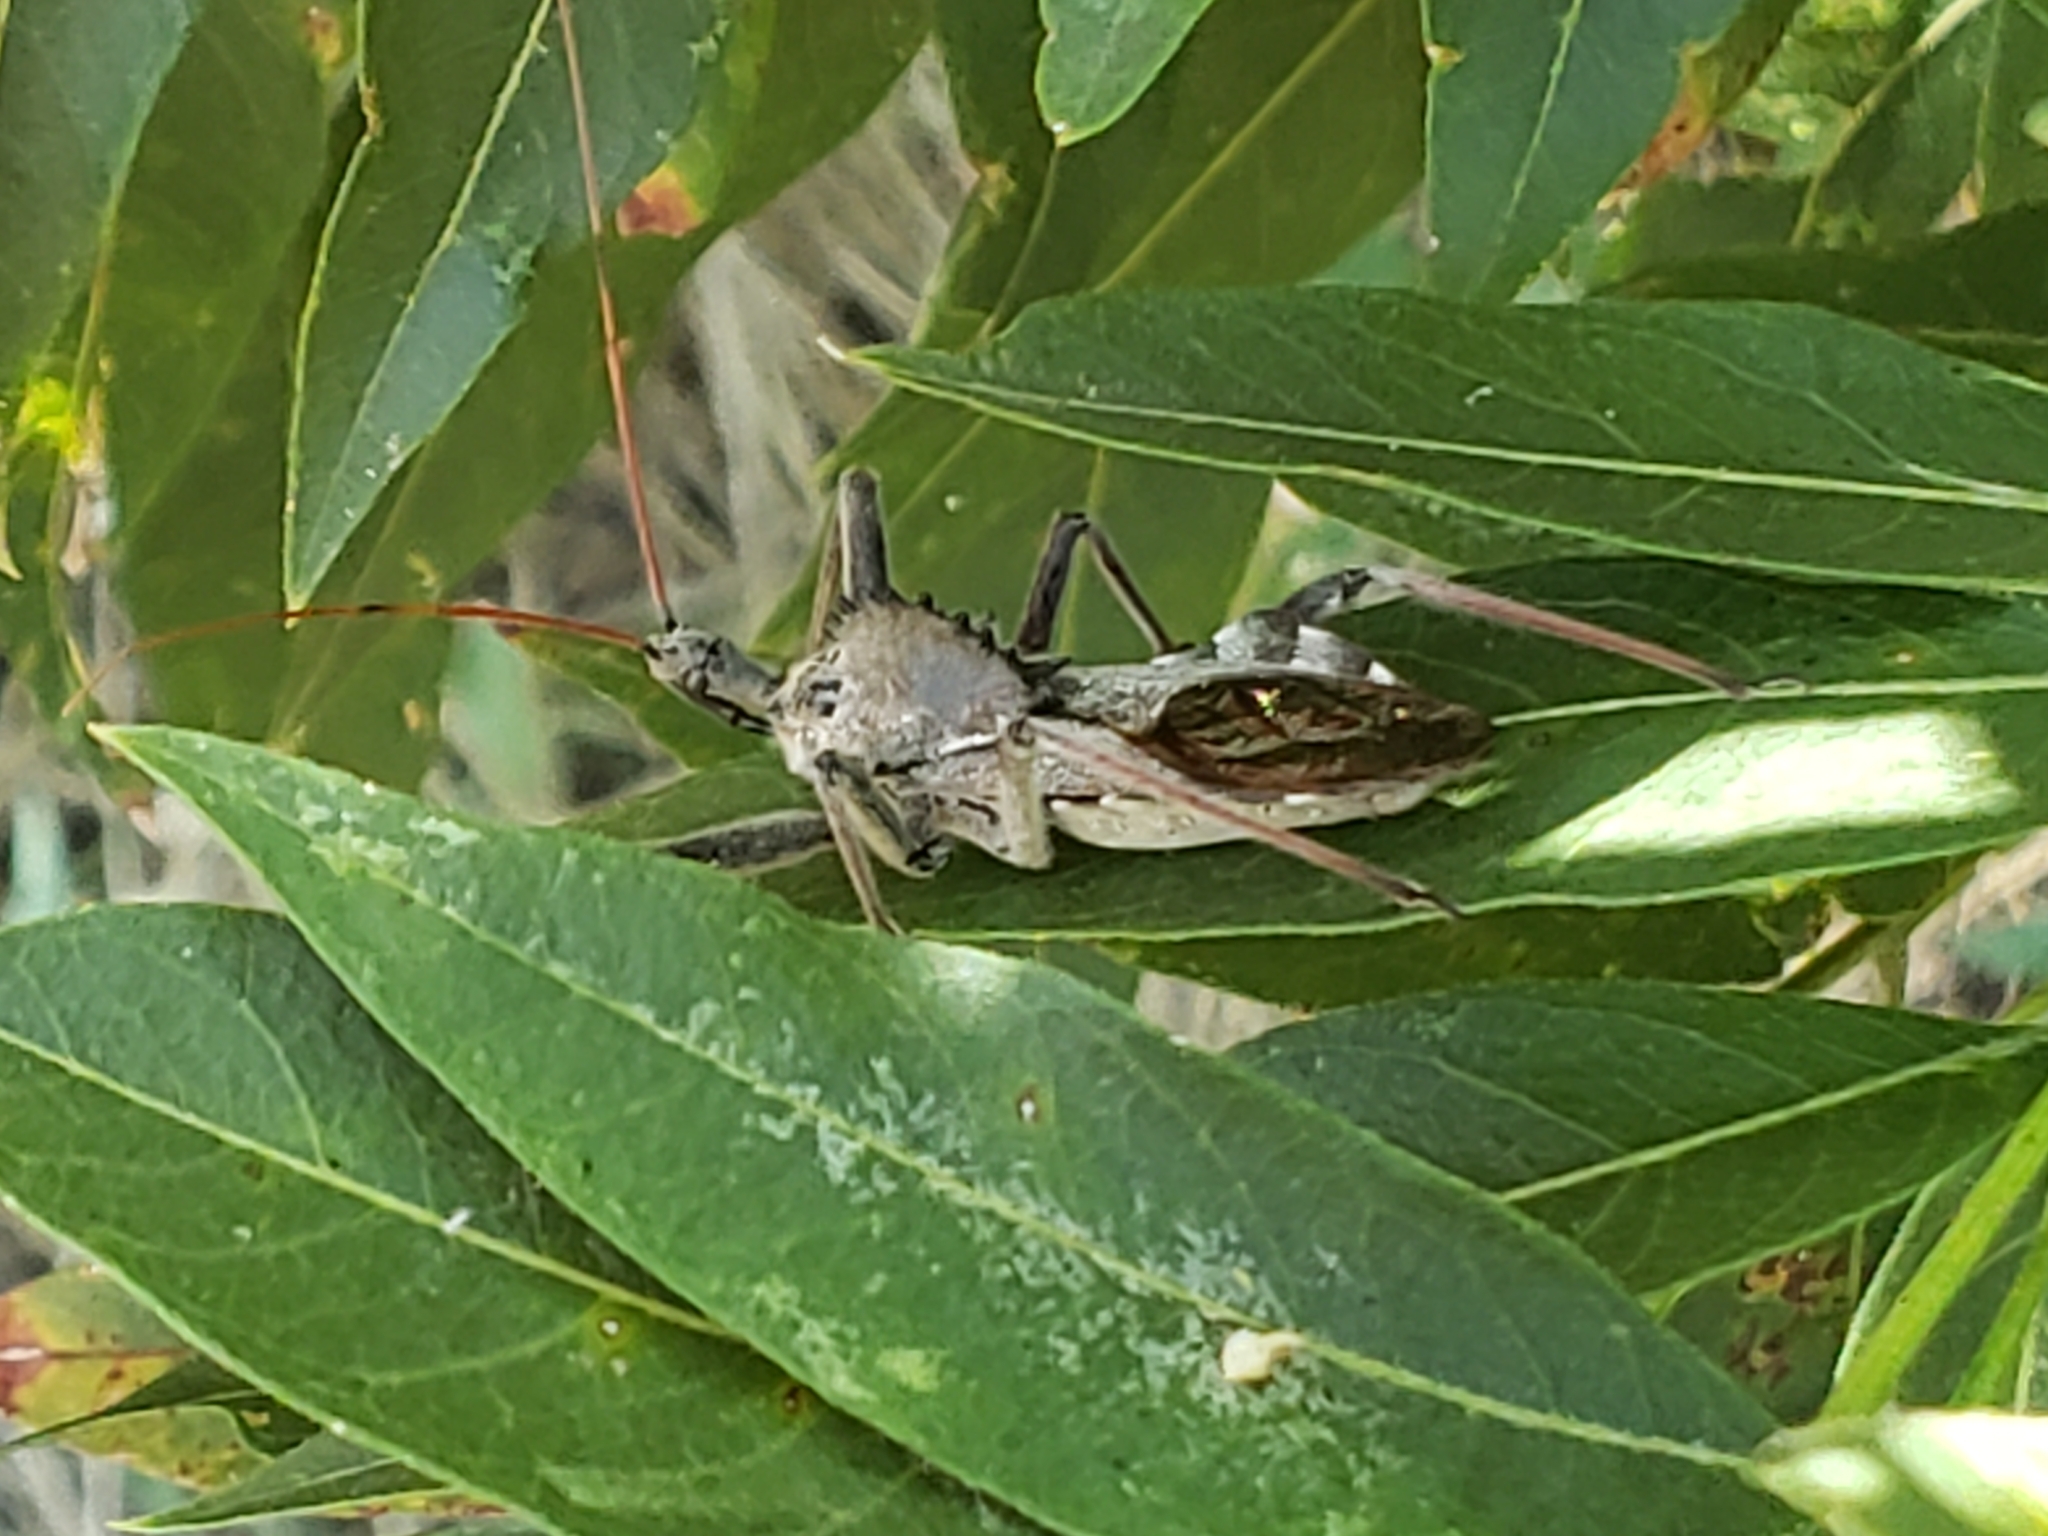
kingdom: Animalia
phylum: Arthropoda
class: Insecta
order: Hemiptera
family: Reduviidae
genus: Arilus
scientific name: Arilus cristatus
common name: North american wheel bug
